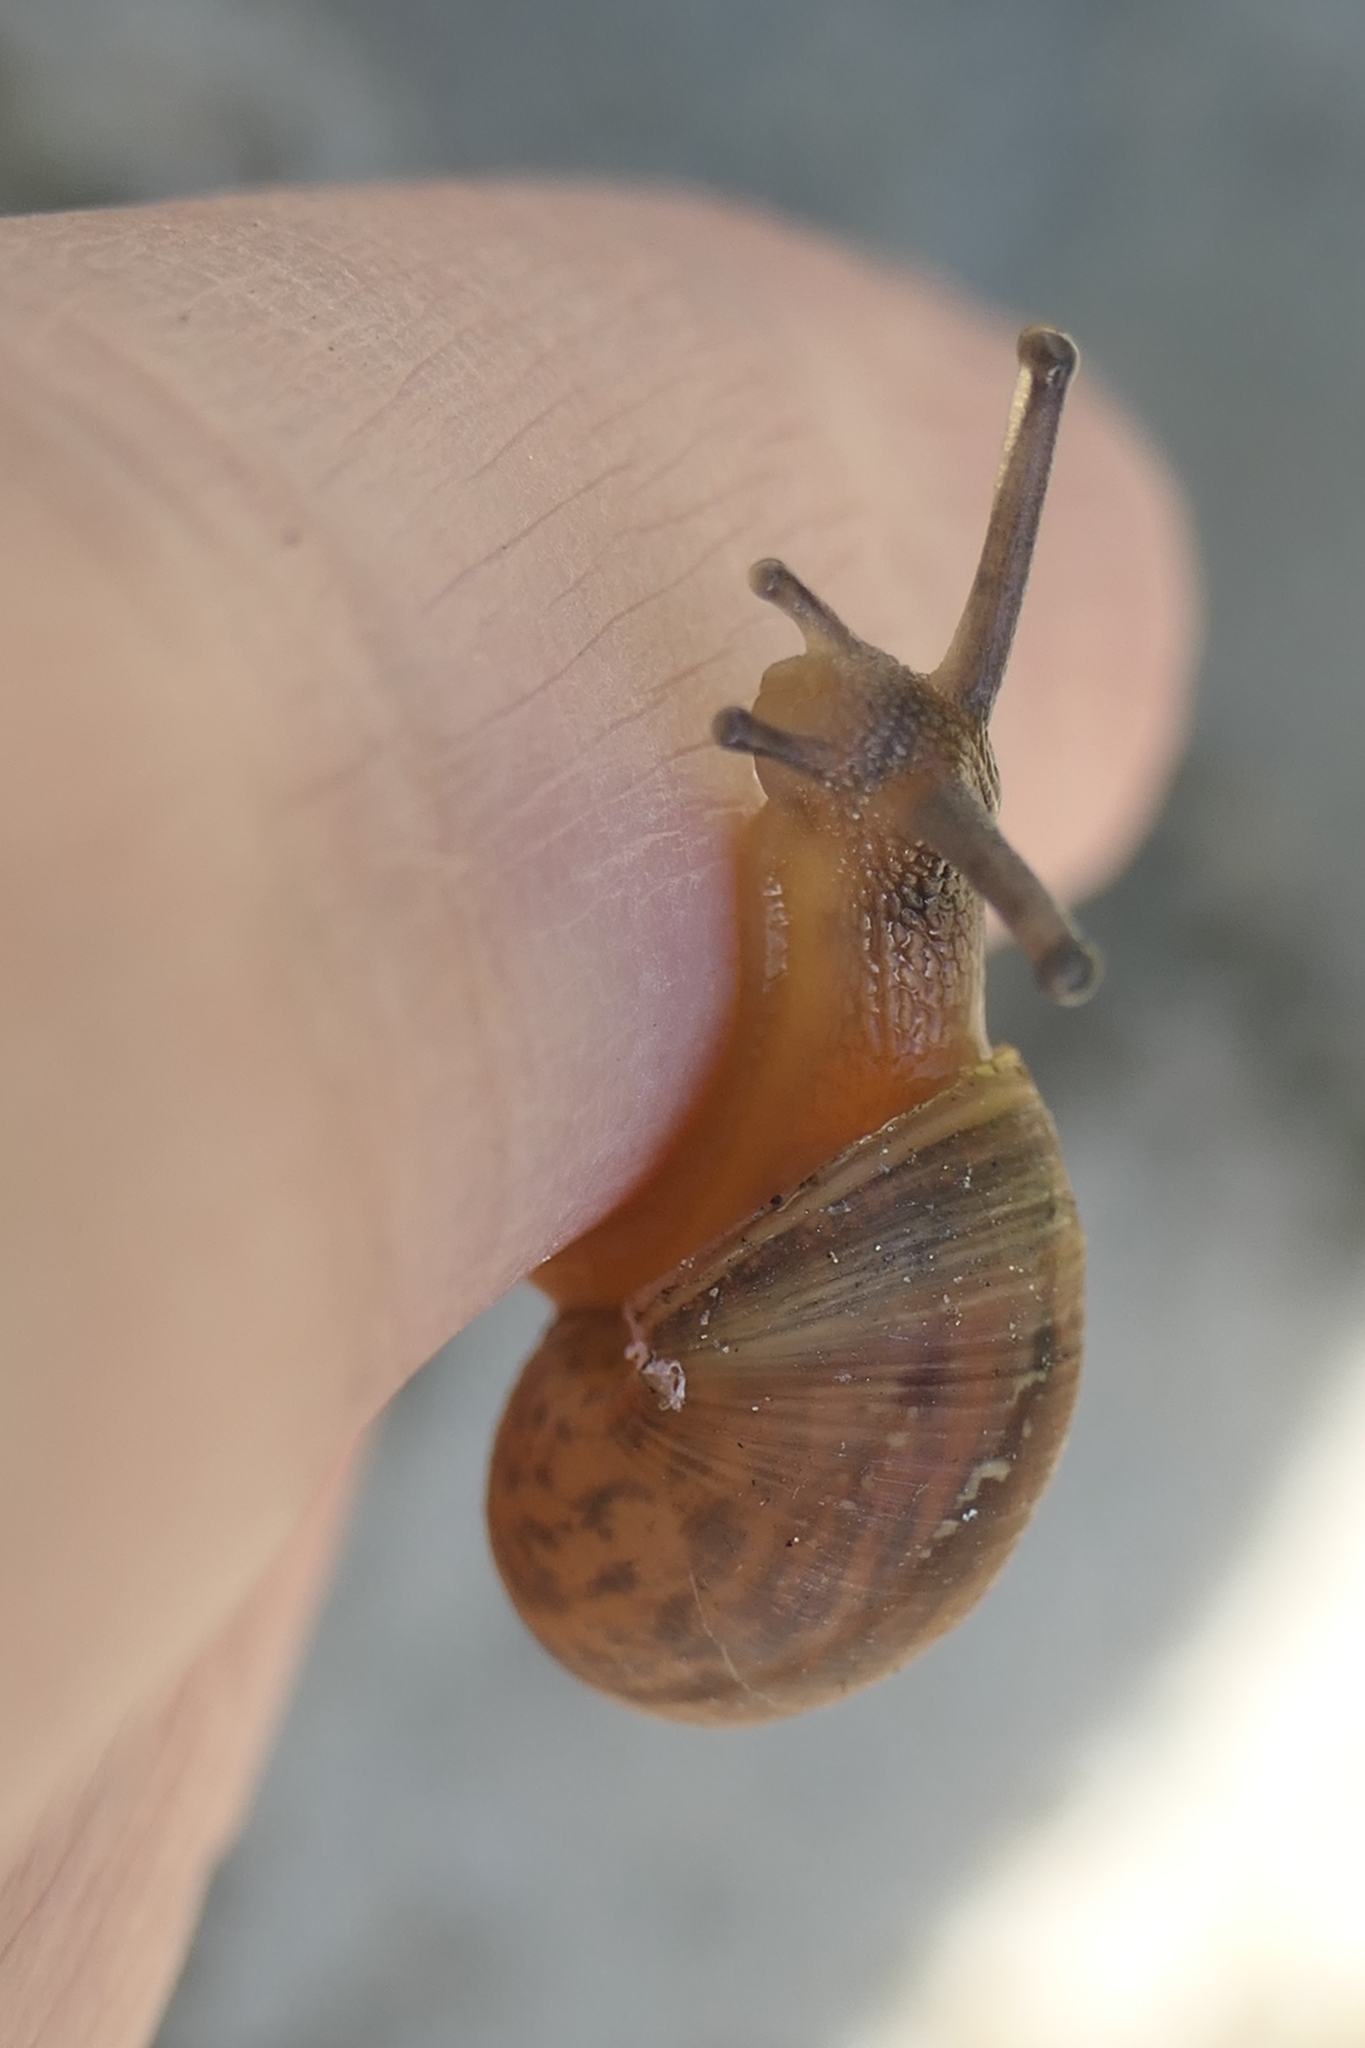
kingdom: Animalia
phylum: Mollusca
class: Gastropoda
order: Stylommatophora
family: Helicidae
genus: Cornu
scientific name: Cornu aspersum
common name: Brown garden snail
